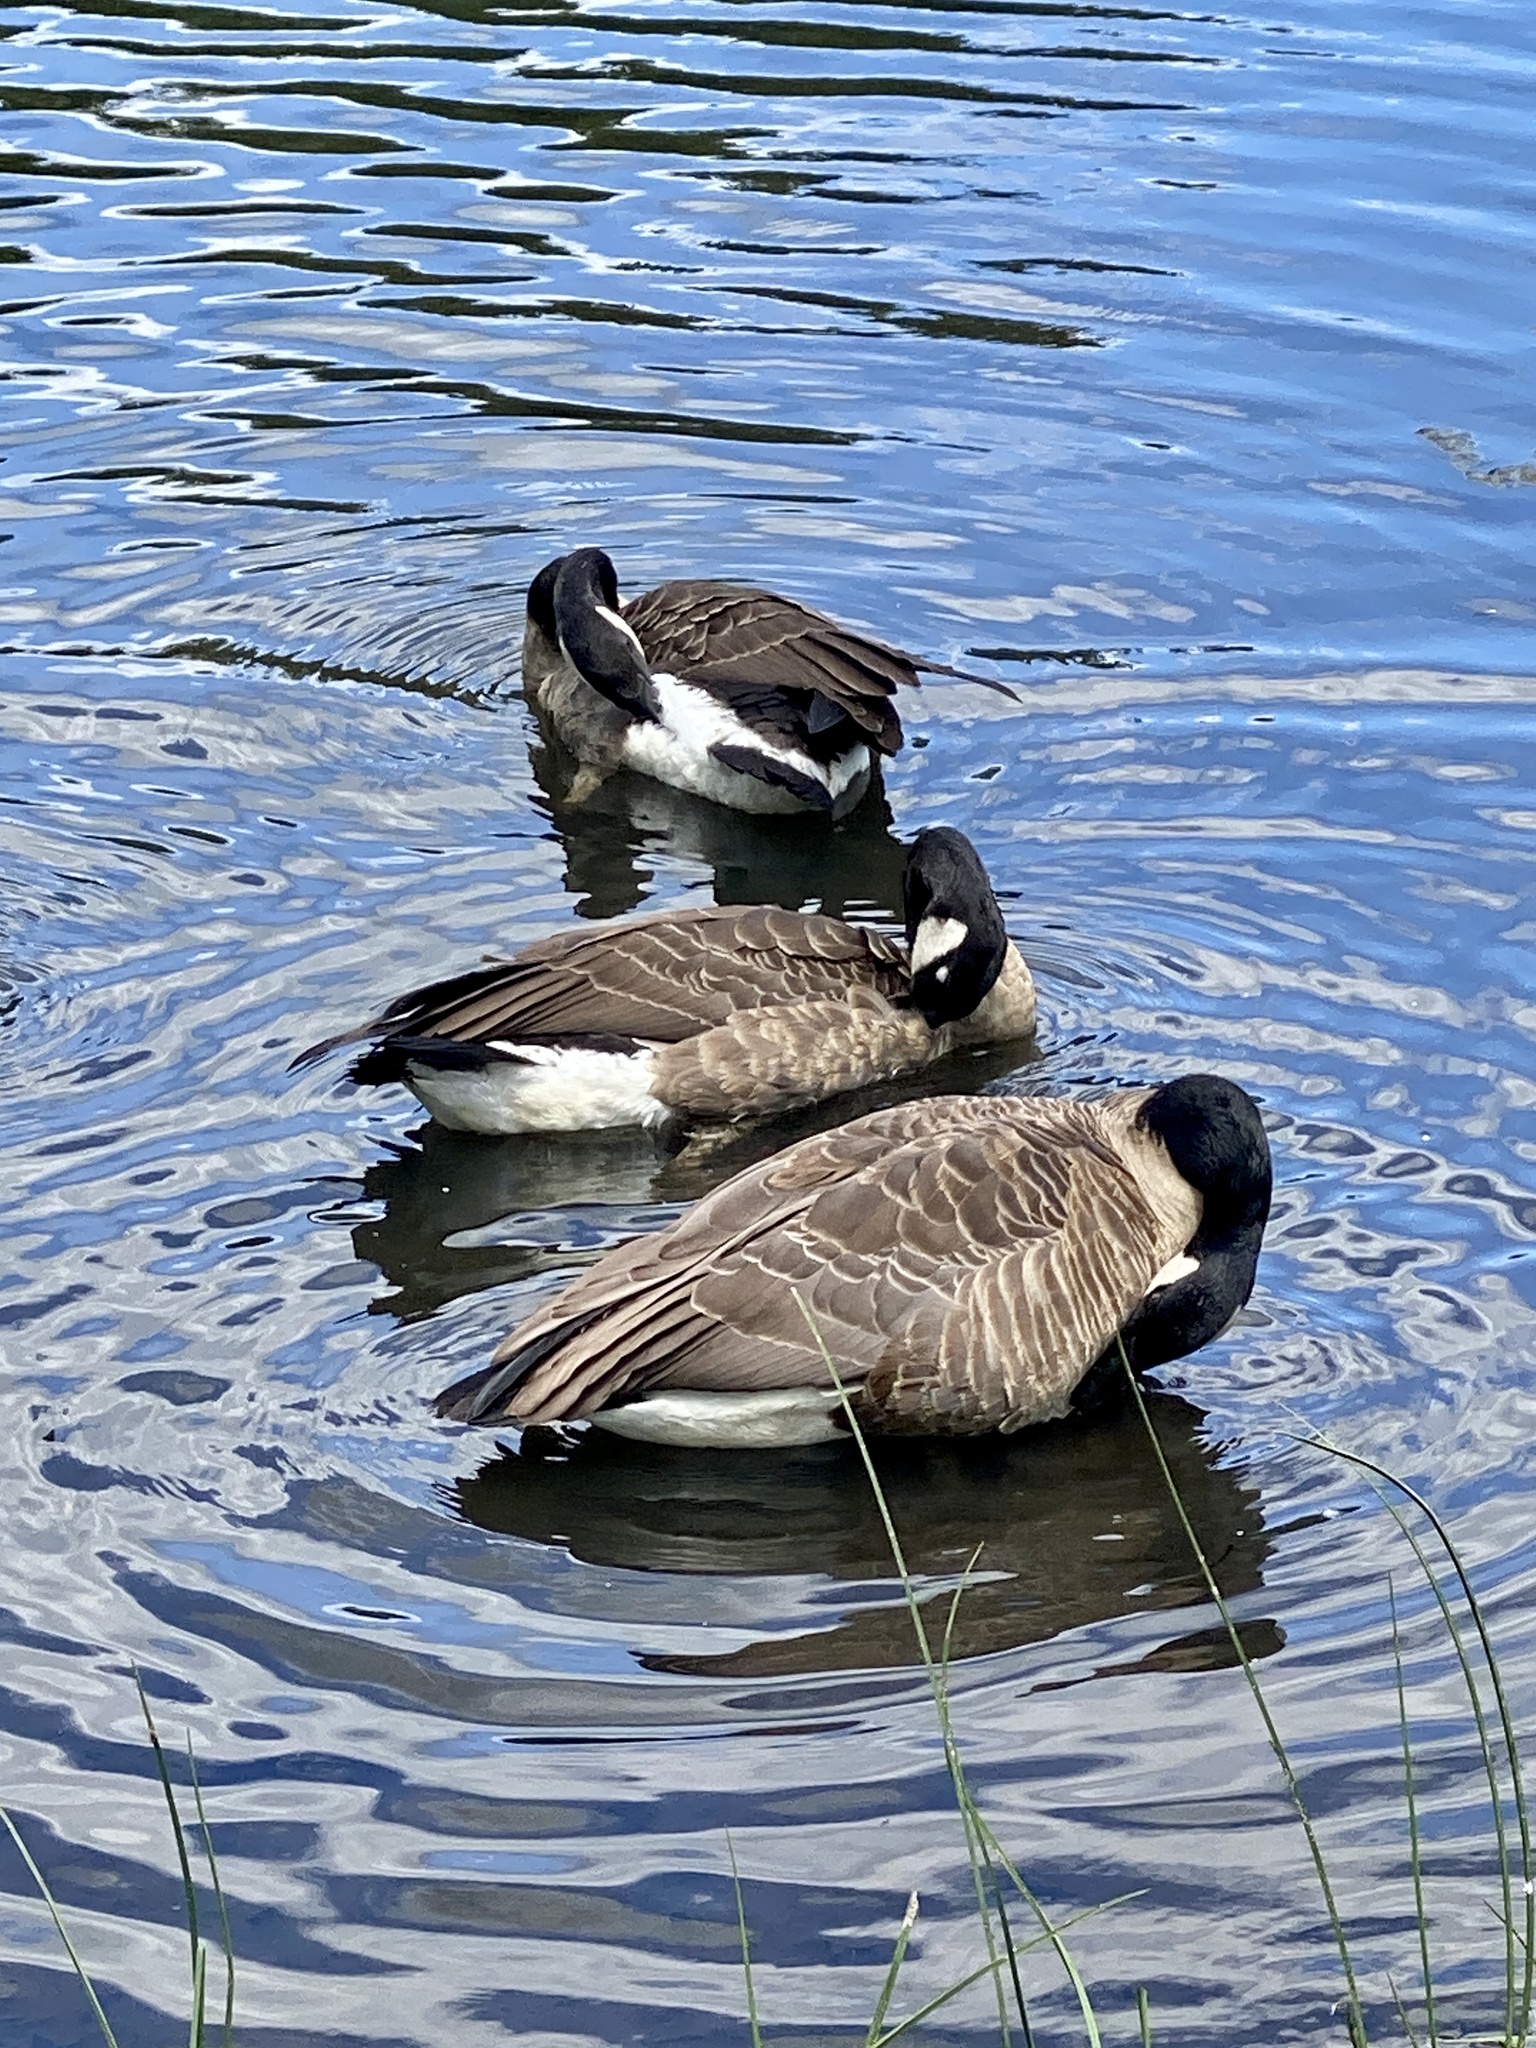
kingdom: Animalia
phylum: Chordata
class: Aves
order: Anseriformes
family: Anatidae
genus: Branta
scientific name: Branta canadensis
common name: Canada goose
